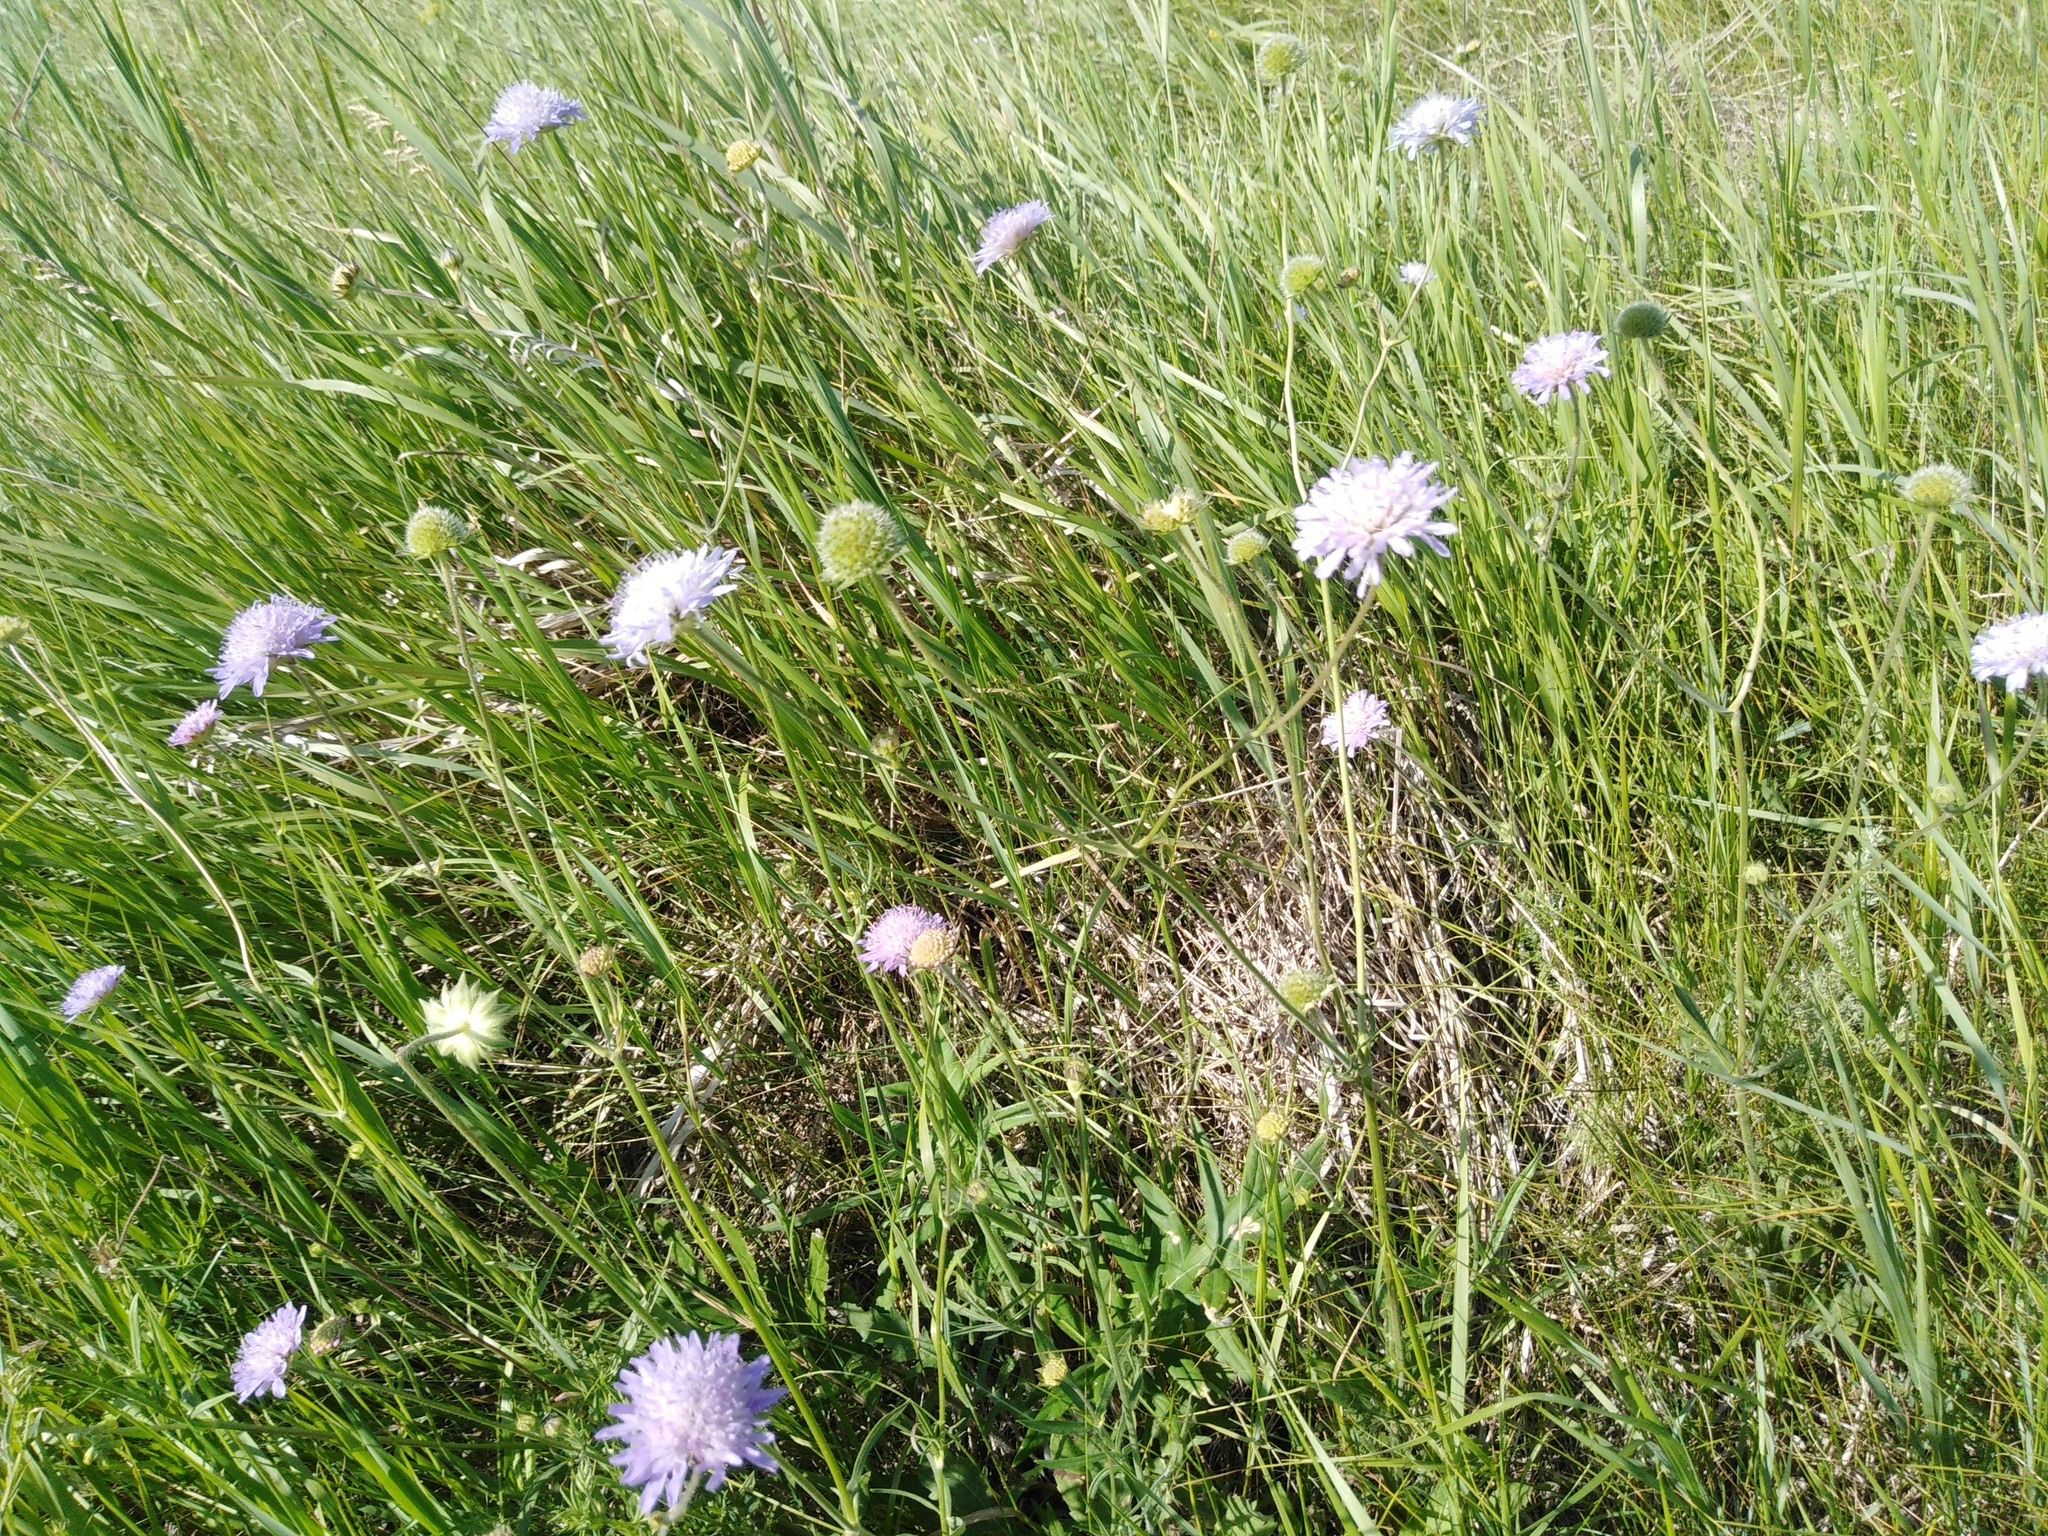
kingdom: Plantae
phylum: Tracheophyta
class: Magnoliopsida
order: Dipsacales
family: Caprifoliaceae
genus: Knautia
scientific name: Knautia arvensis
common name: Field scabiosa
